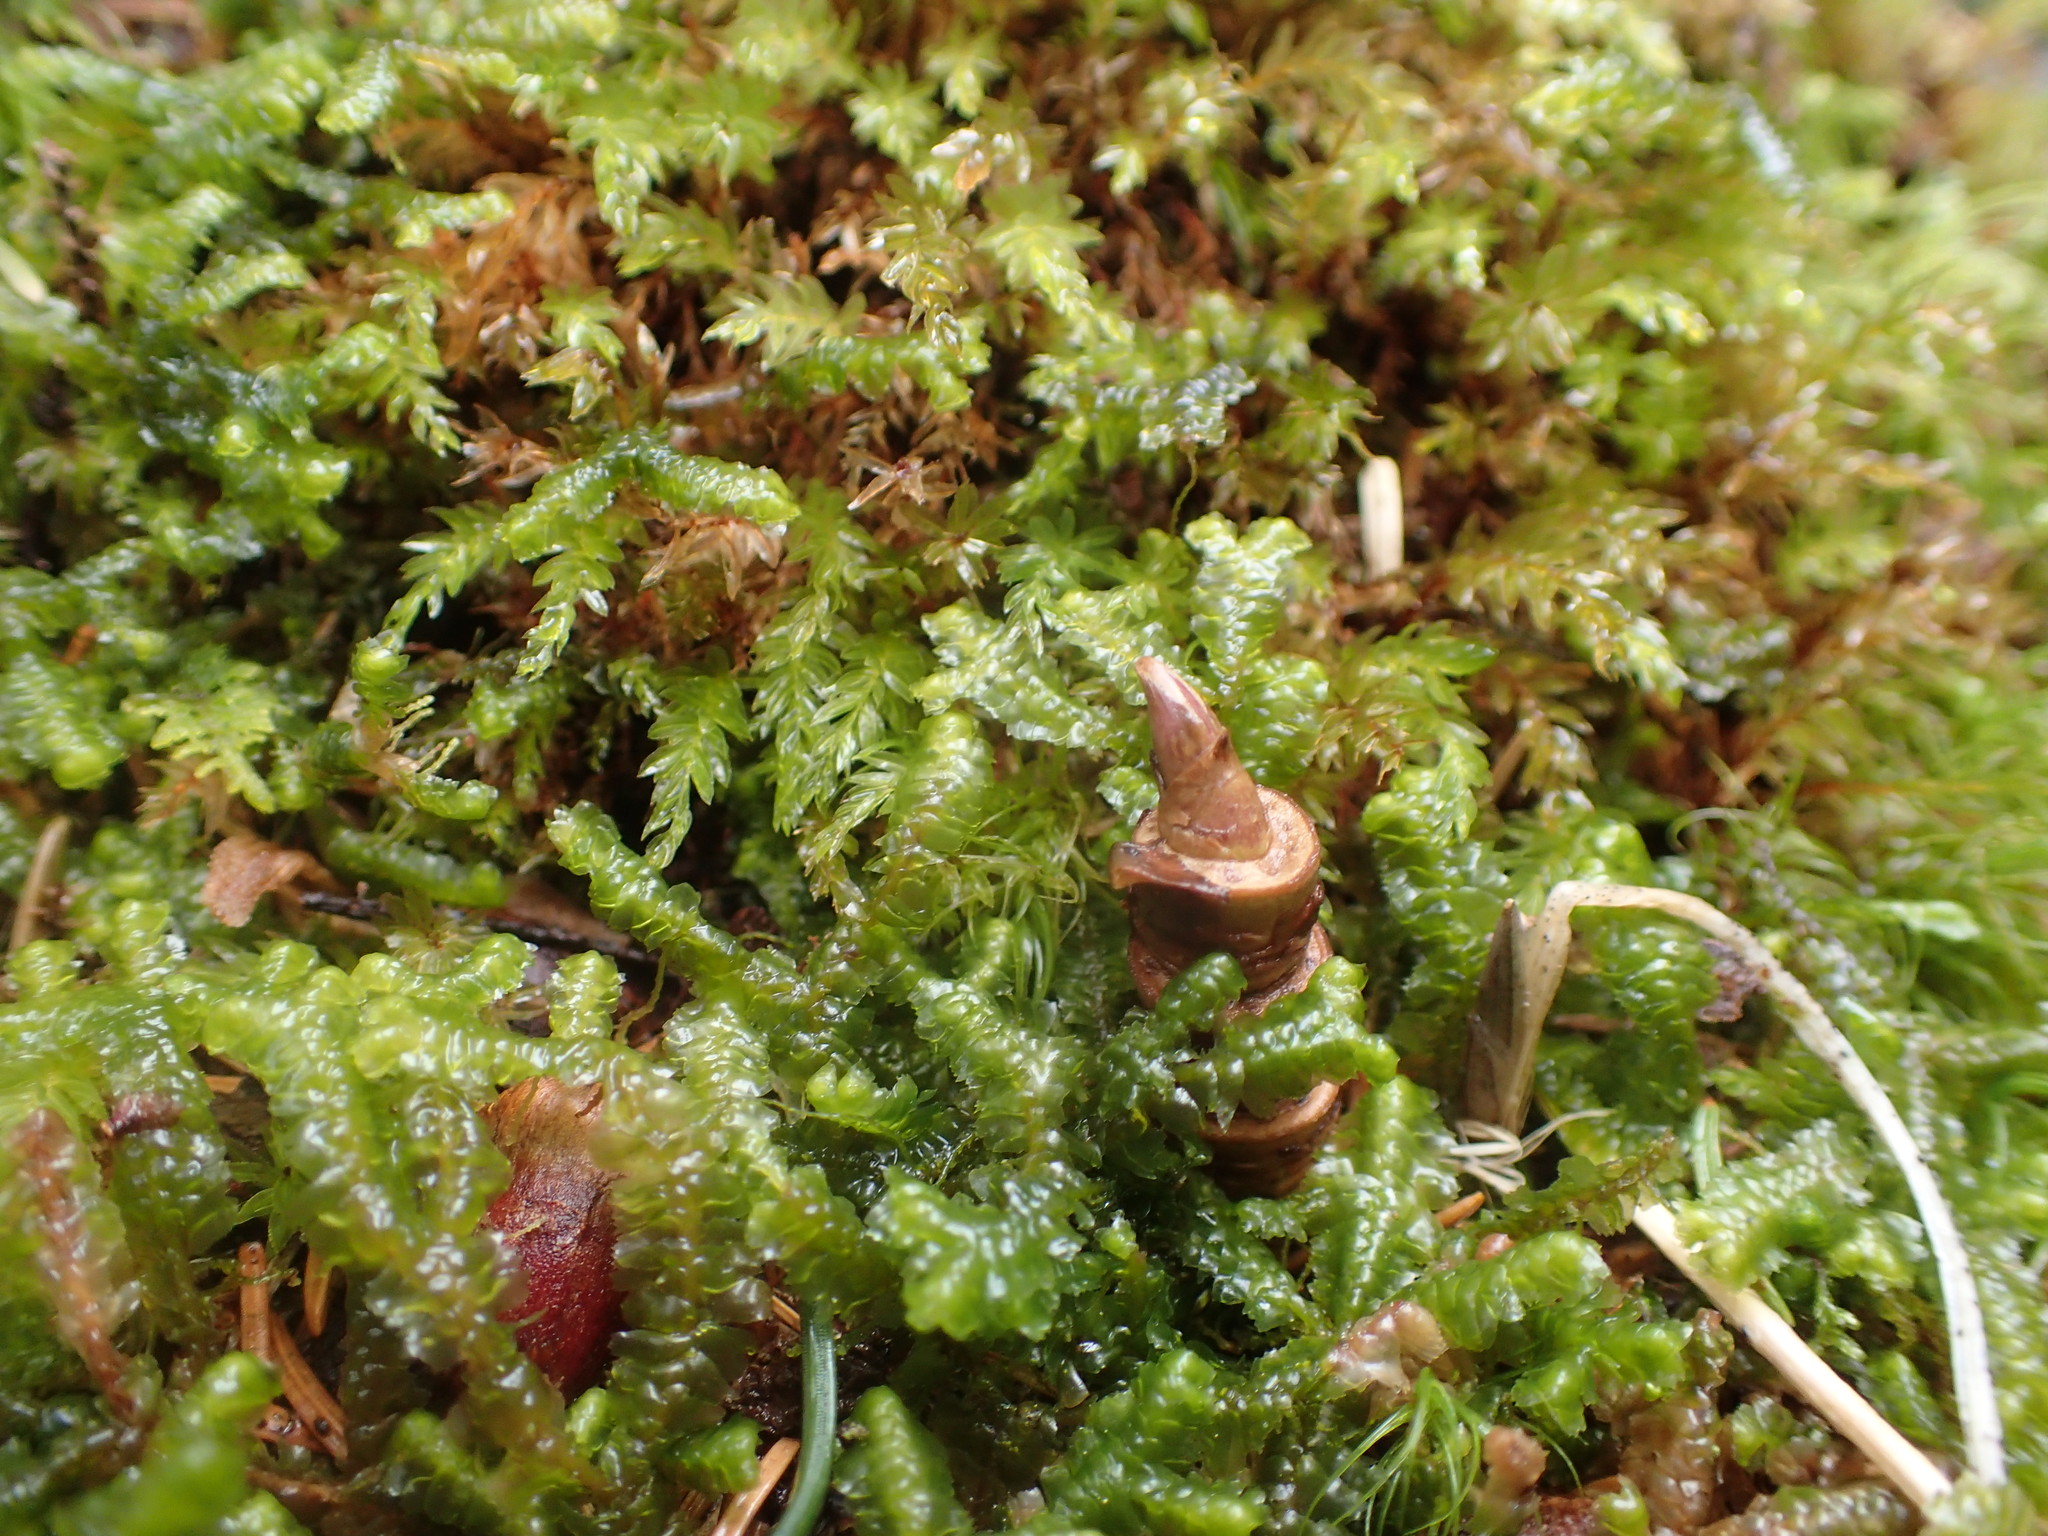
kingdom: Plantae
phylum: Tracheophyta
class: Magnoliopsida
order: Apiales
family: Araliaceae
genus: Aralia
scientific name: Aralia nudicaulis
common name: Wild sarsaparilla
